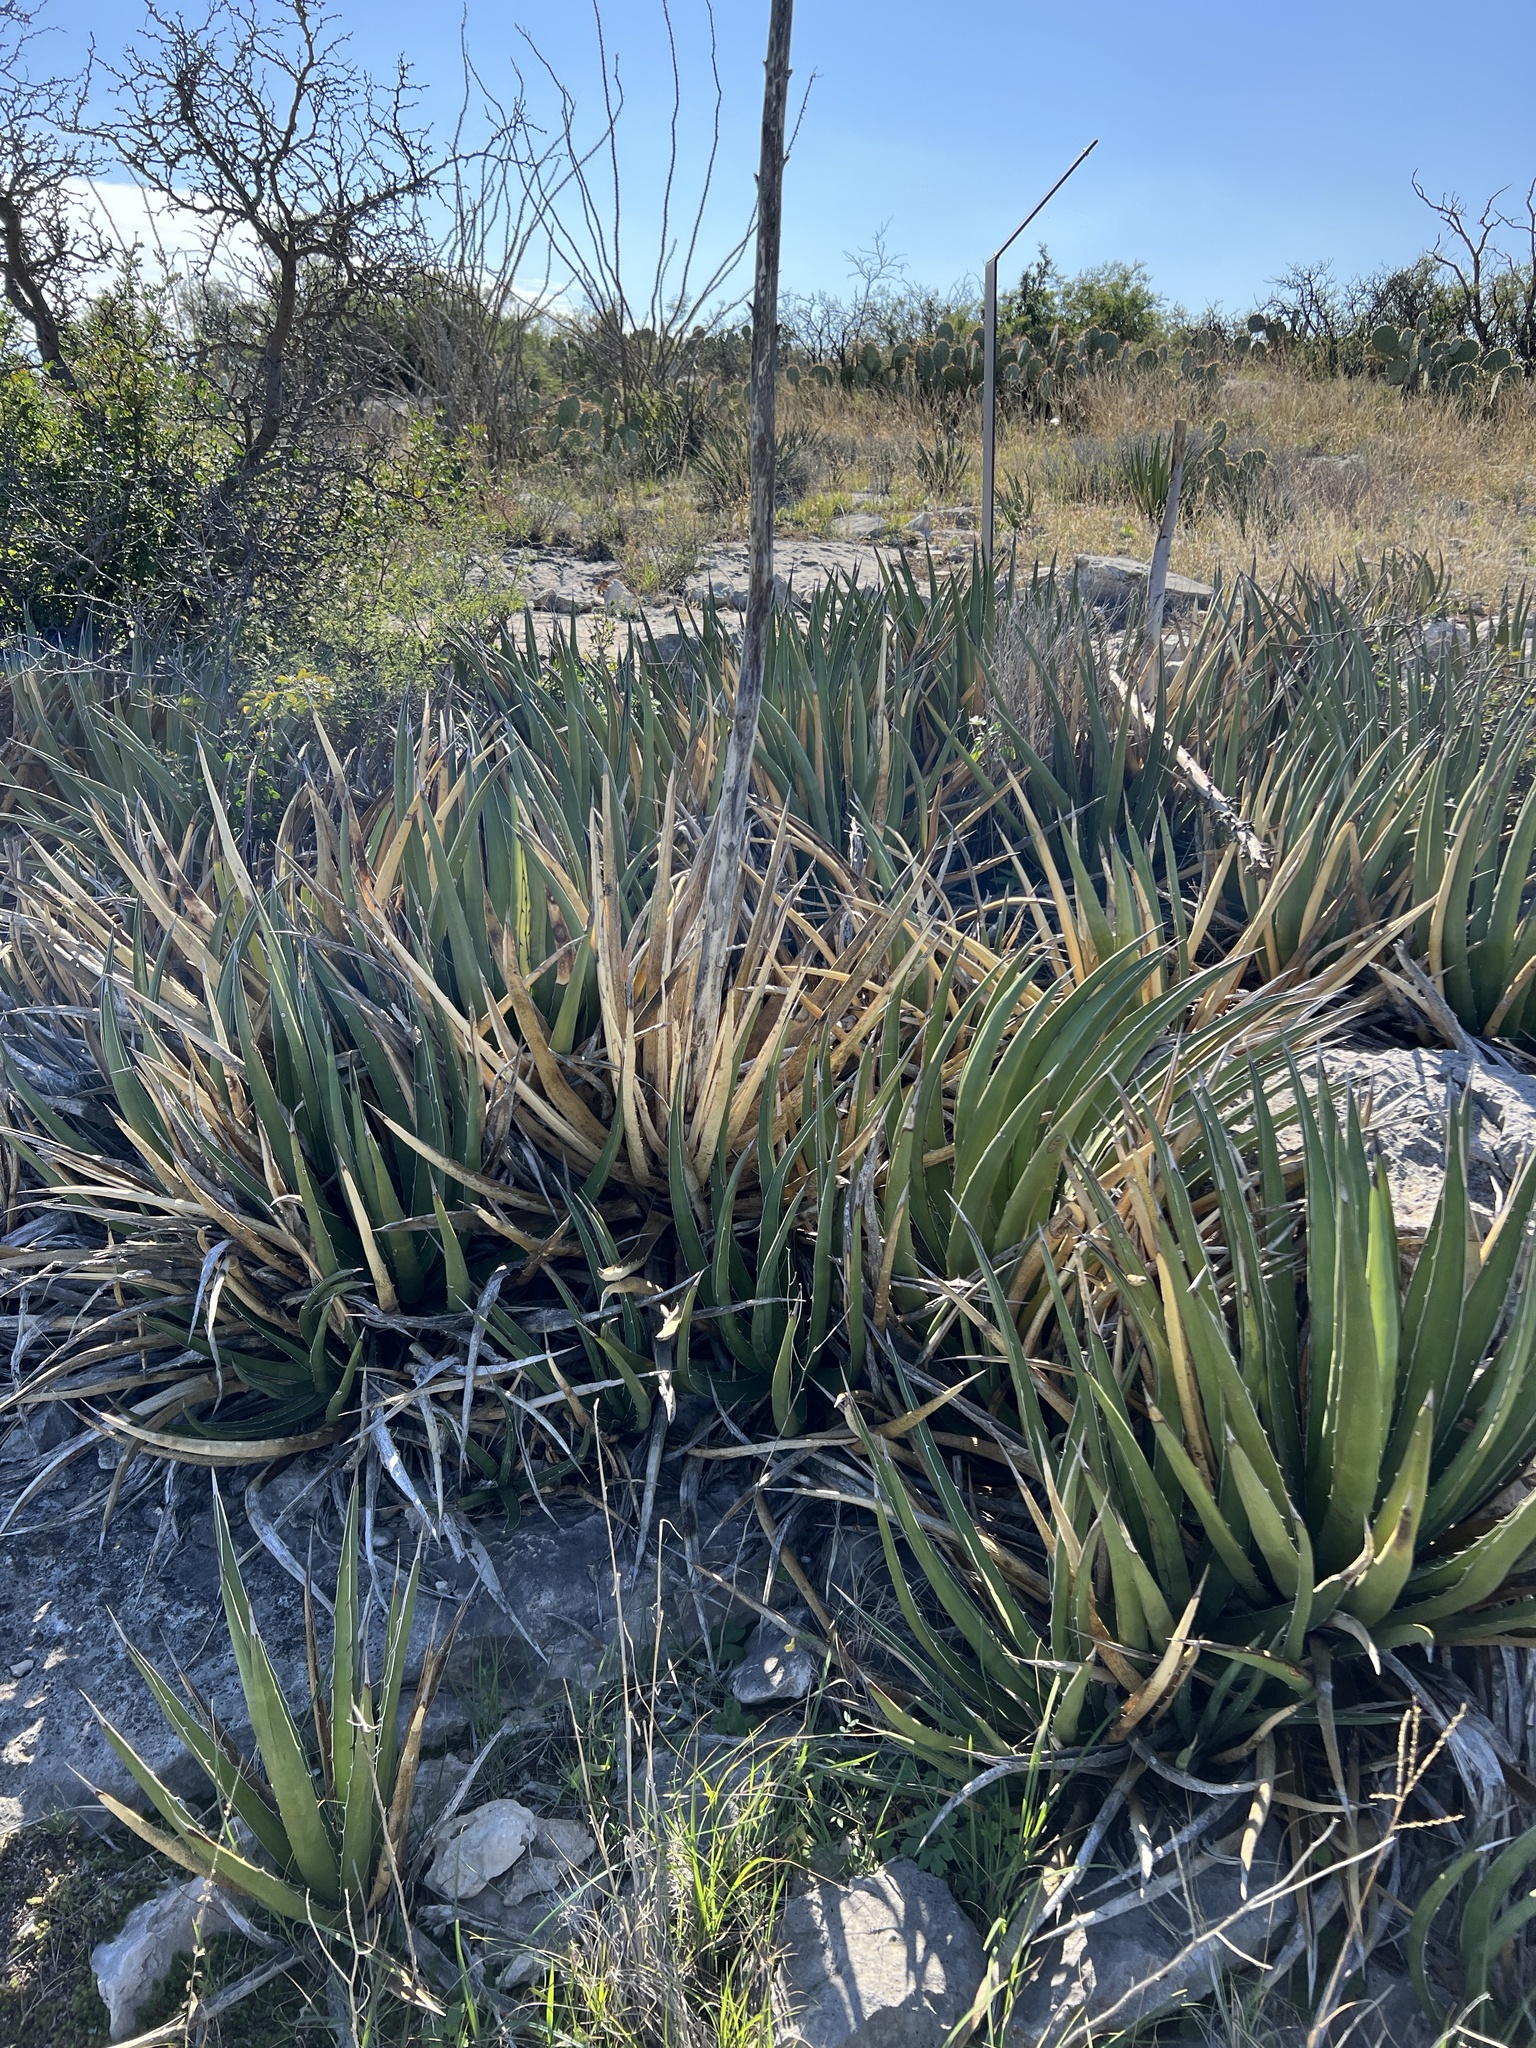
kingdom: Plantae
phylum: Tracheophyta
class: Liliopsida
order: Asparagales
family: Asparagaceae
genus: Agave
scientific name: Agave lechuguilla
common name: Lecheguilla agave
